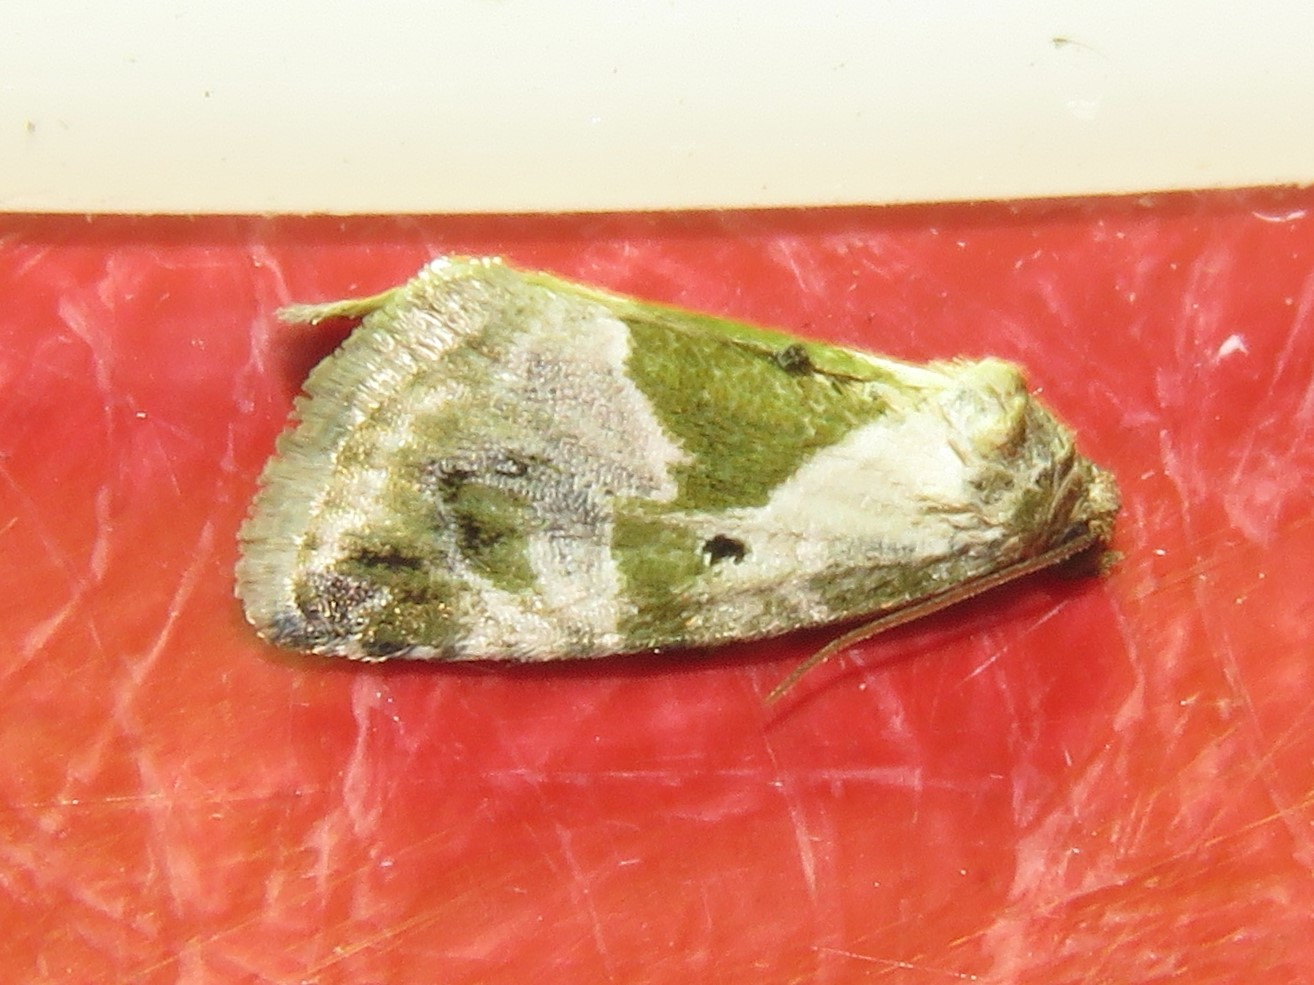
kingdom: Animalia
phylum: Arthropoda
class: Insecta
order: Lepidoptera
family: Noctuidae
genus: Maliattha
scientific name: Maliattha synochitis
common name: Black-dotted glyph
